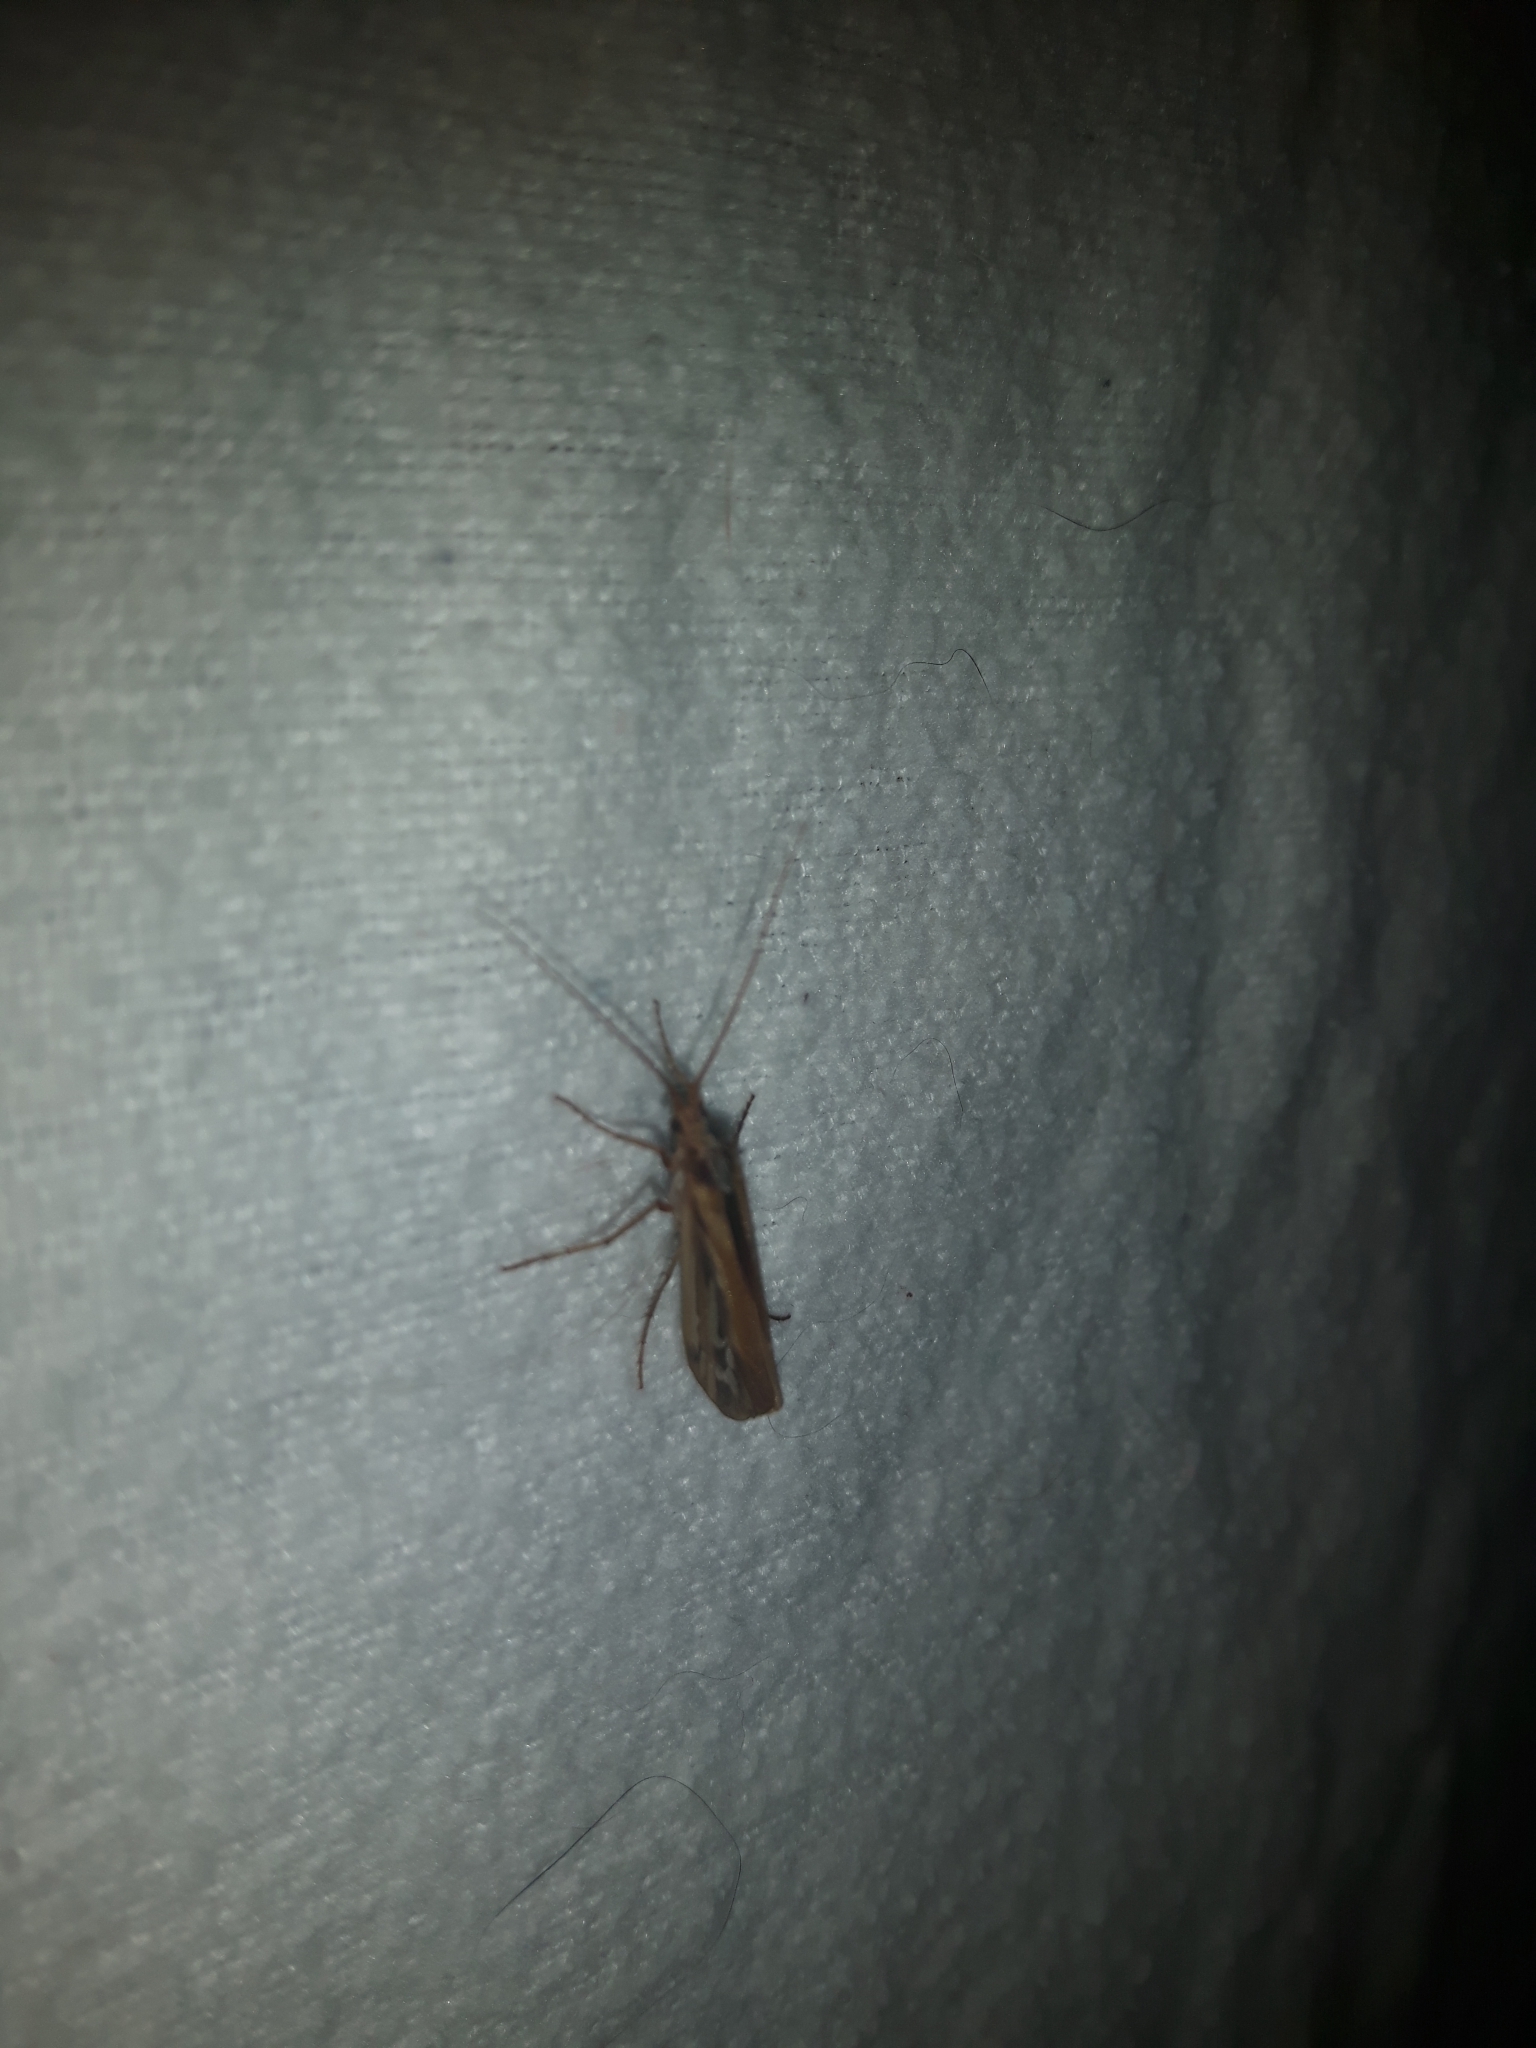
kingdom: Animalia
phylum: Arthropoda
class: Insecta
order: Trichoptera
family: Limnephilidae
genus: Limnephilus
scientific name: Limnephilus ornatus
